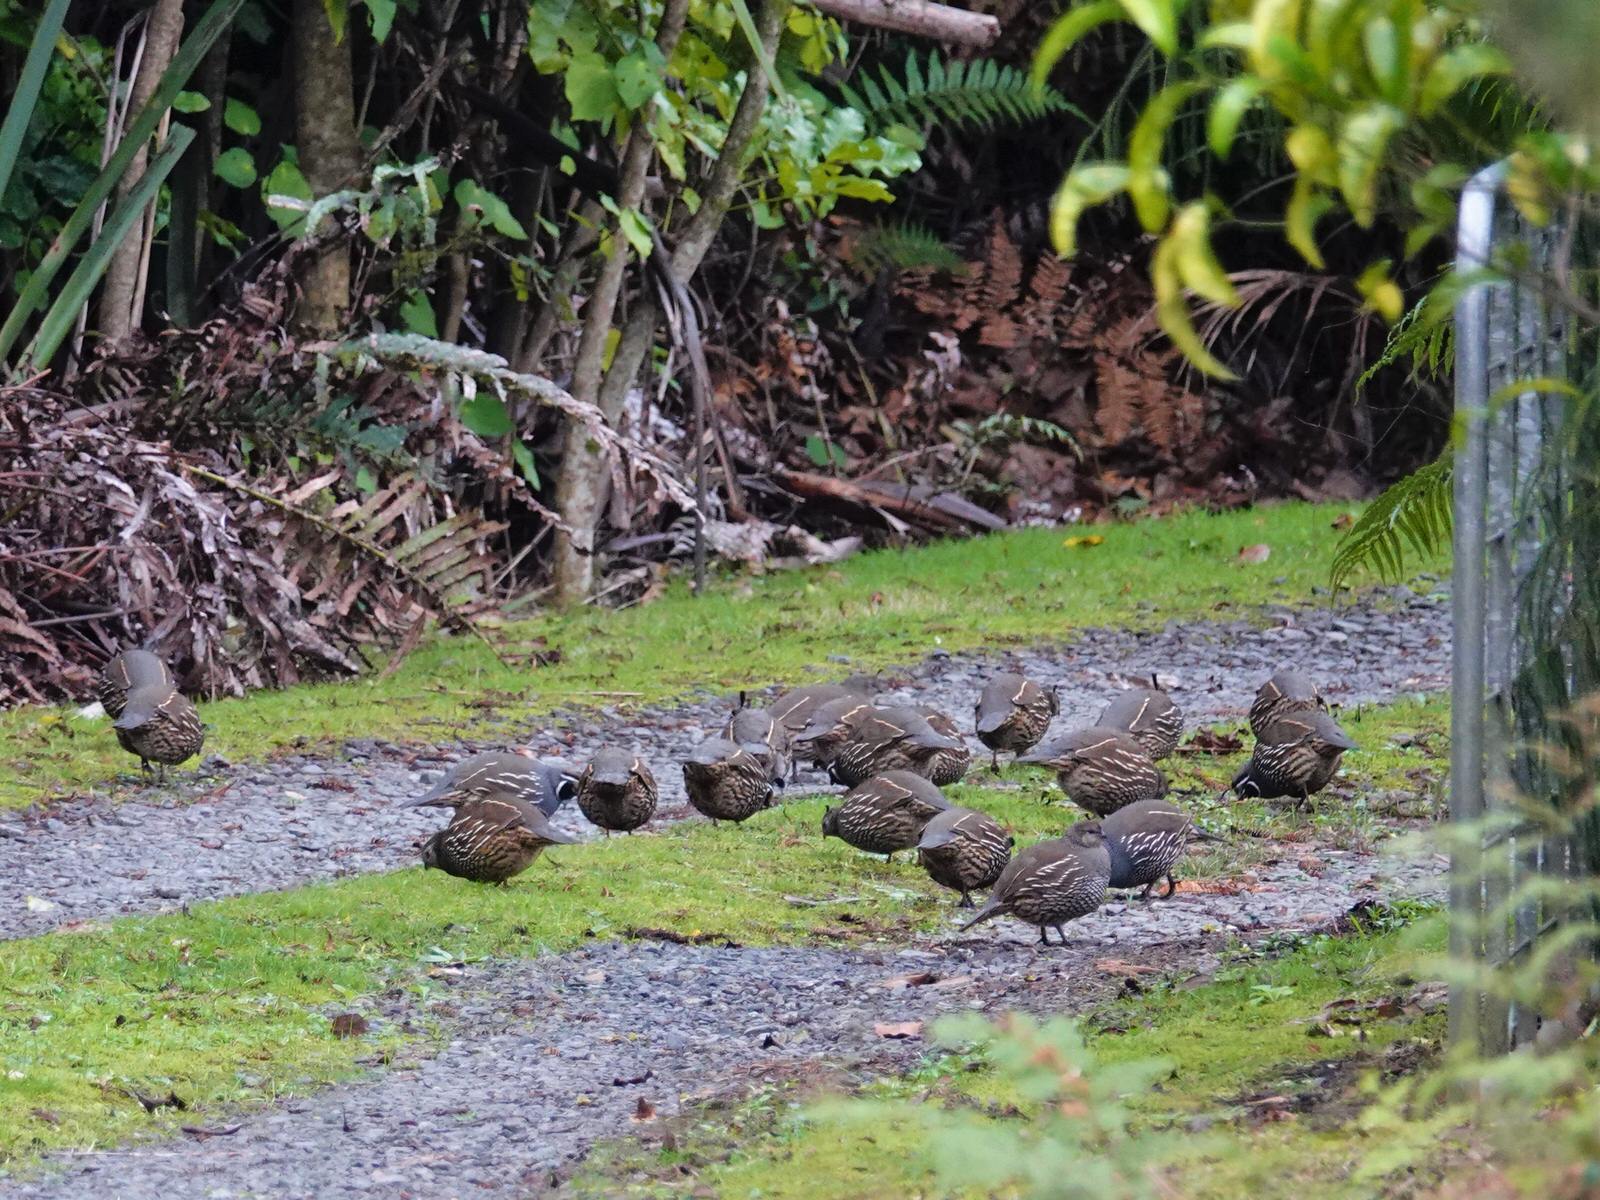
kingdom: Animalia
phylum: Chordata
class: Aves
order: Galliformes
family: Odontophoridae
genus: Callipepla
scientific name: Callipepla californica
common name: California quail
